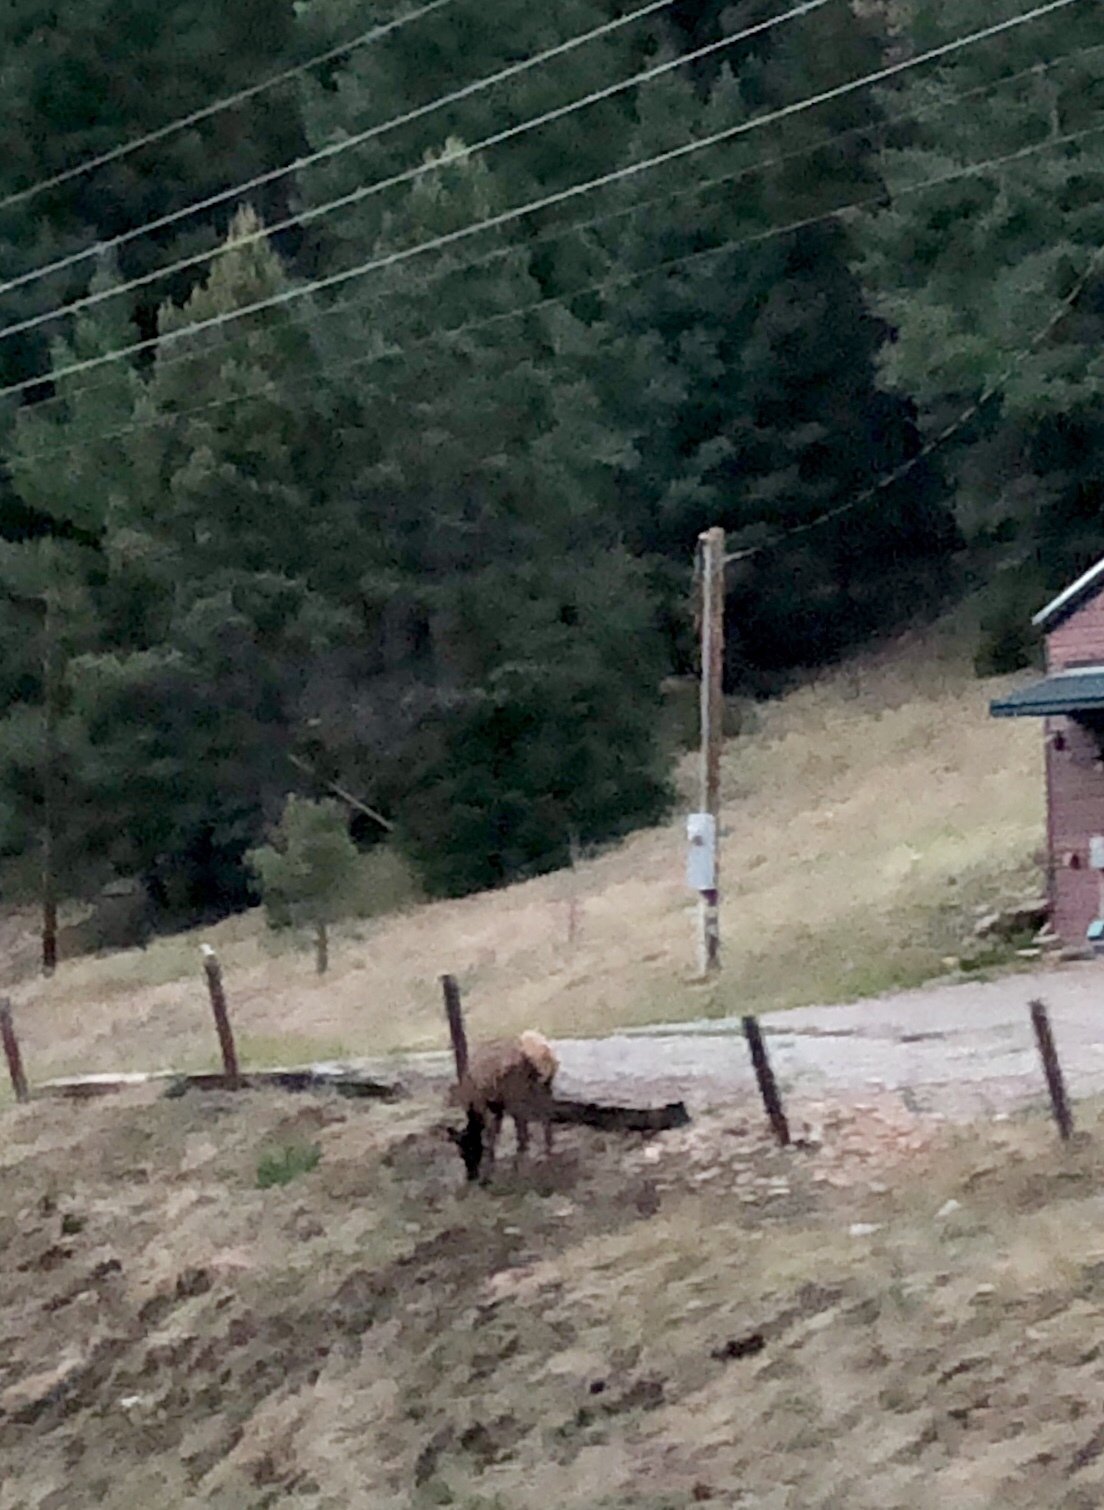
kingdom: Animalia
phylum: Chordata
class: Mammalia
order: Artiodactyla
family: Cervidae
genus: Cervus
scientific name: Cervus elaphus
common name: Red deer
